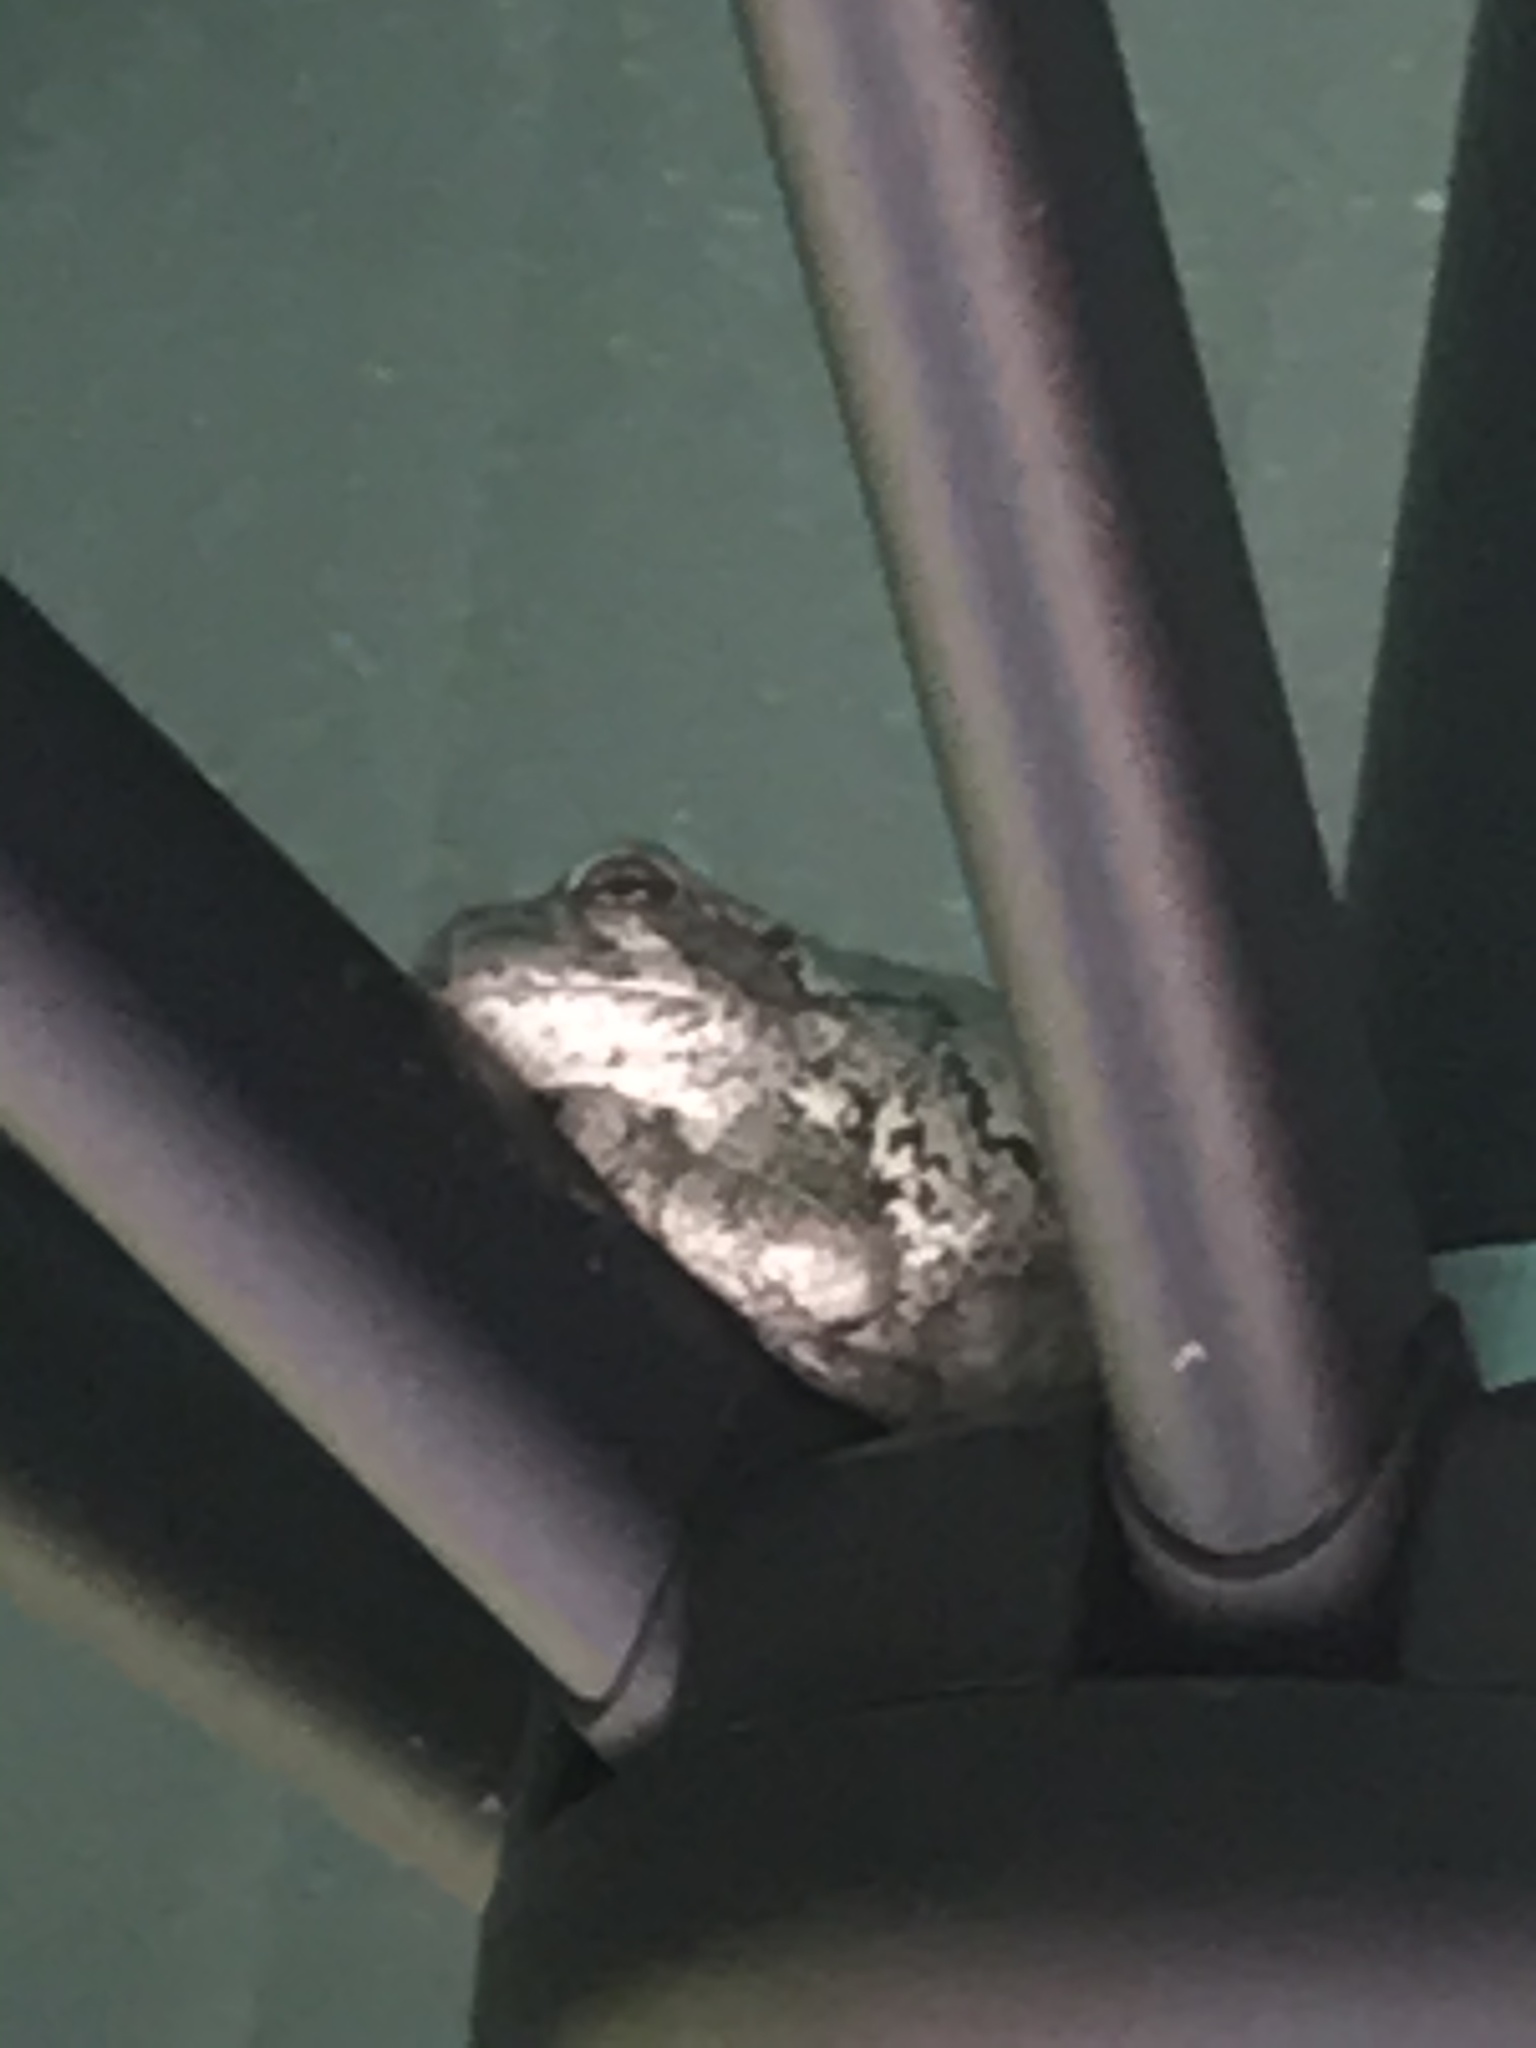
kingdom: Animalia
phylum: Chordata
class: Amphibia
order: Anura
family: Hylidae
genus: Dryophytes
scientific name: Dryophytes versicolor
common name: Gray treefrog
